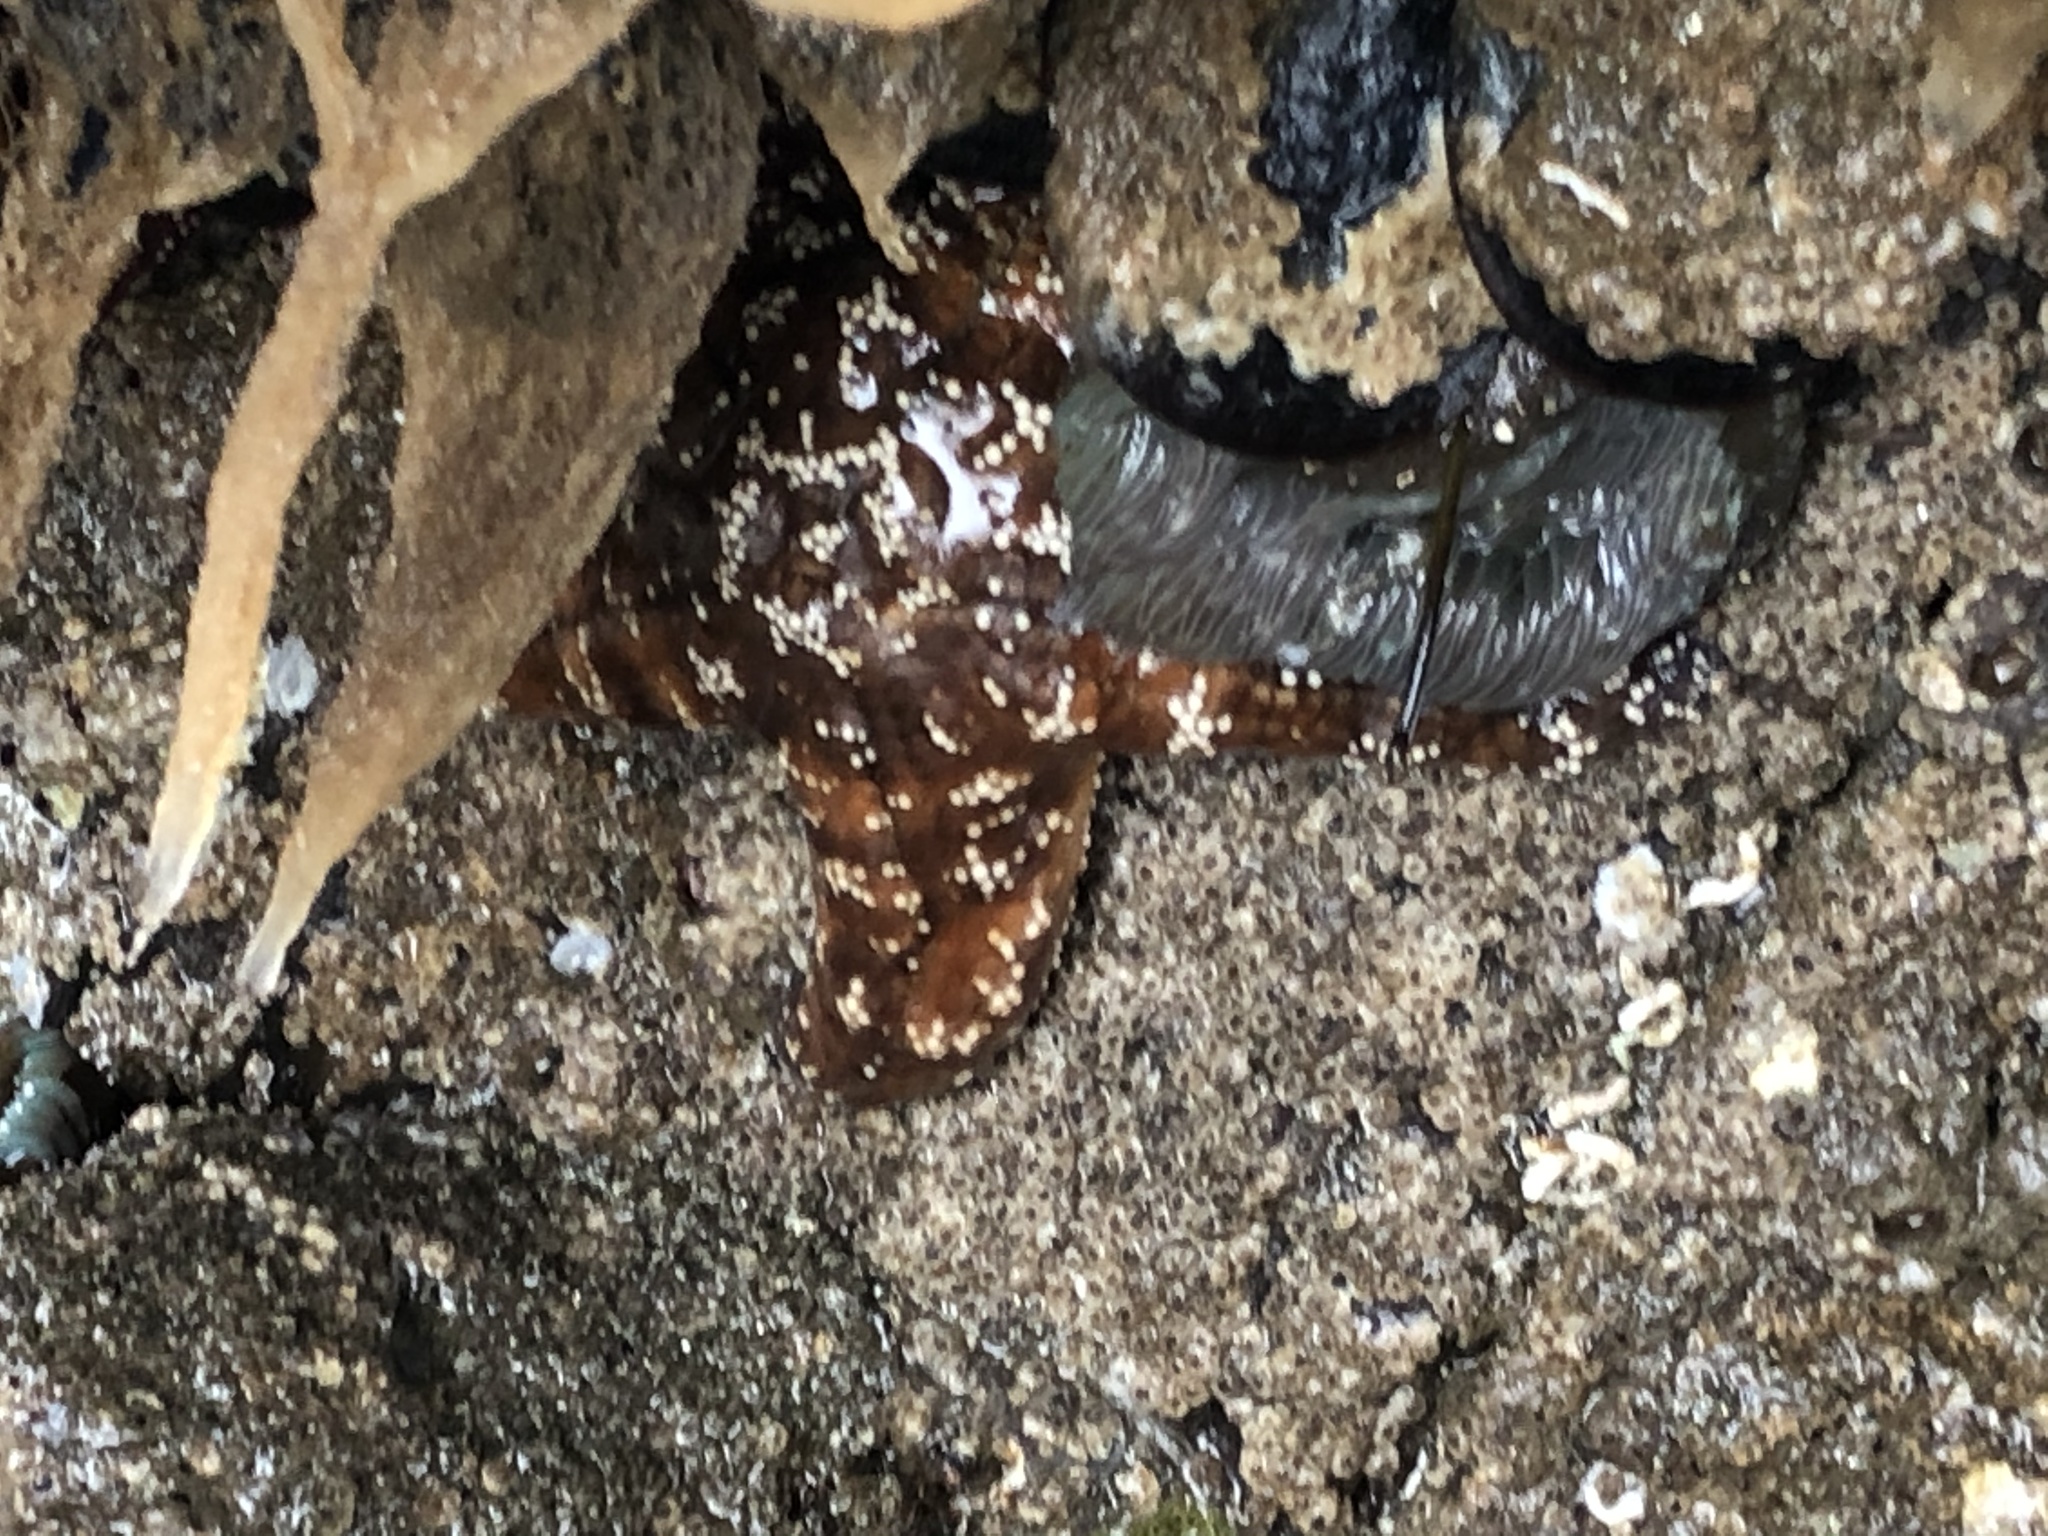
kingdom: Animalia
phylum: Echinodermata
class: Asteroidea
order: Forcipulatida
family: Asteriidae
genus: Pisaster
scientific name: Pisaster ochraceus
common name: Ochre stars
